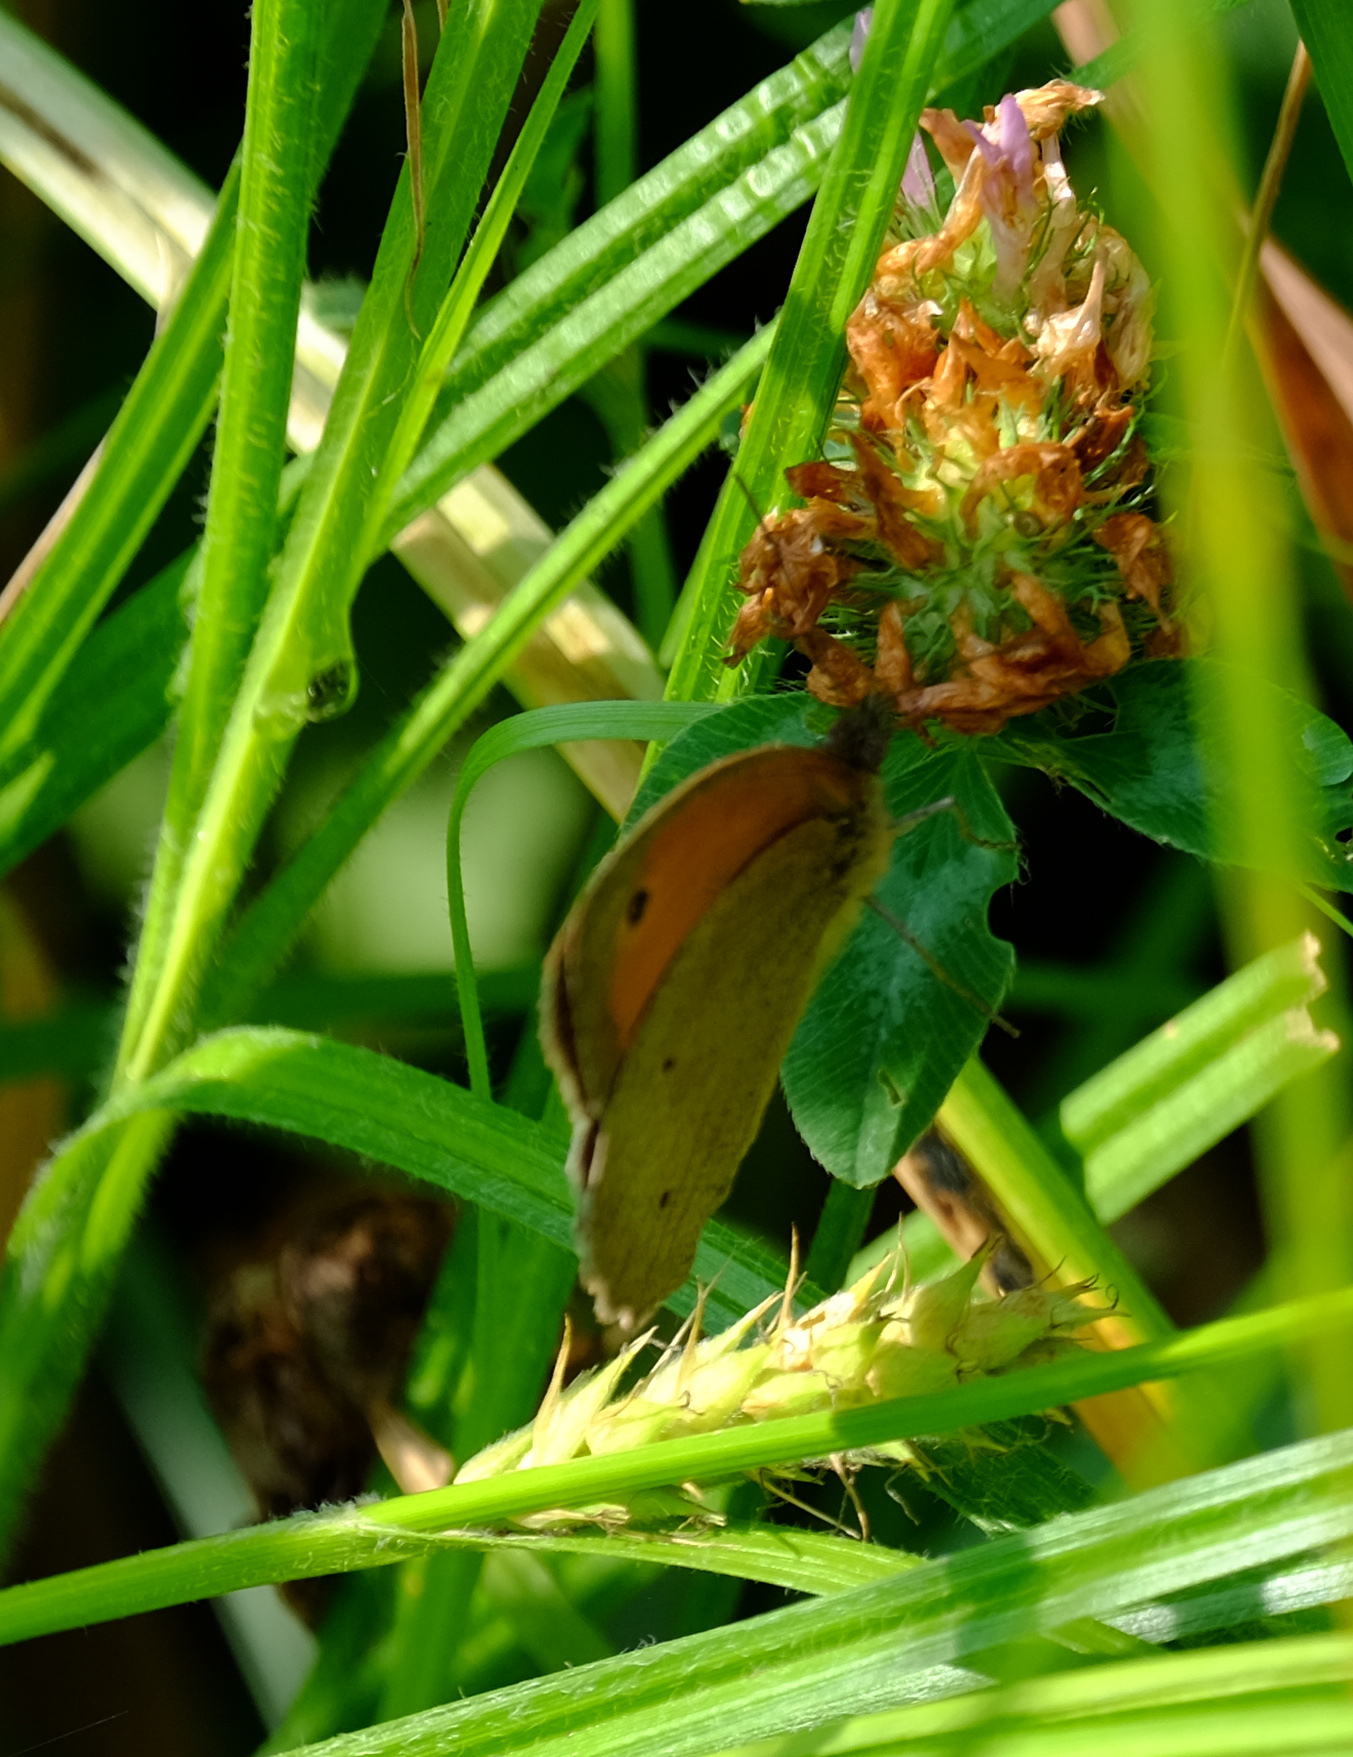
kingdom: Animalia
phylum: Arthropoda
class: Insecta
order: Lepidoptera
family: Nymphalidae
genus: Maniola
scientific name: Maniola jurtina
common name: Meadow brown
